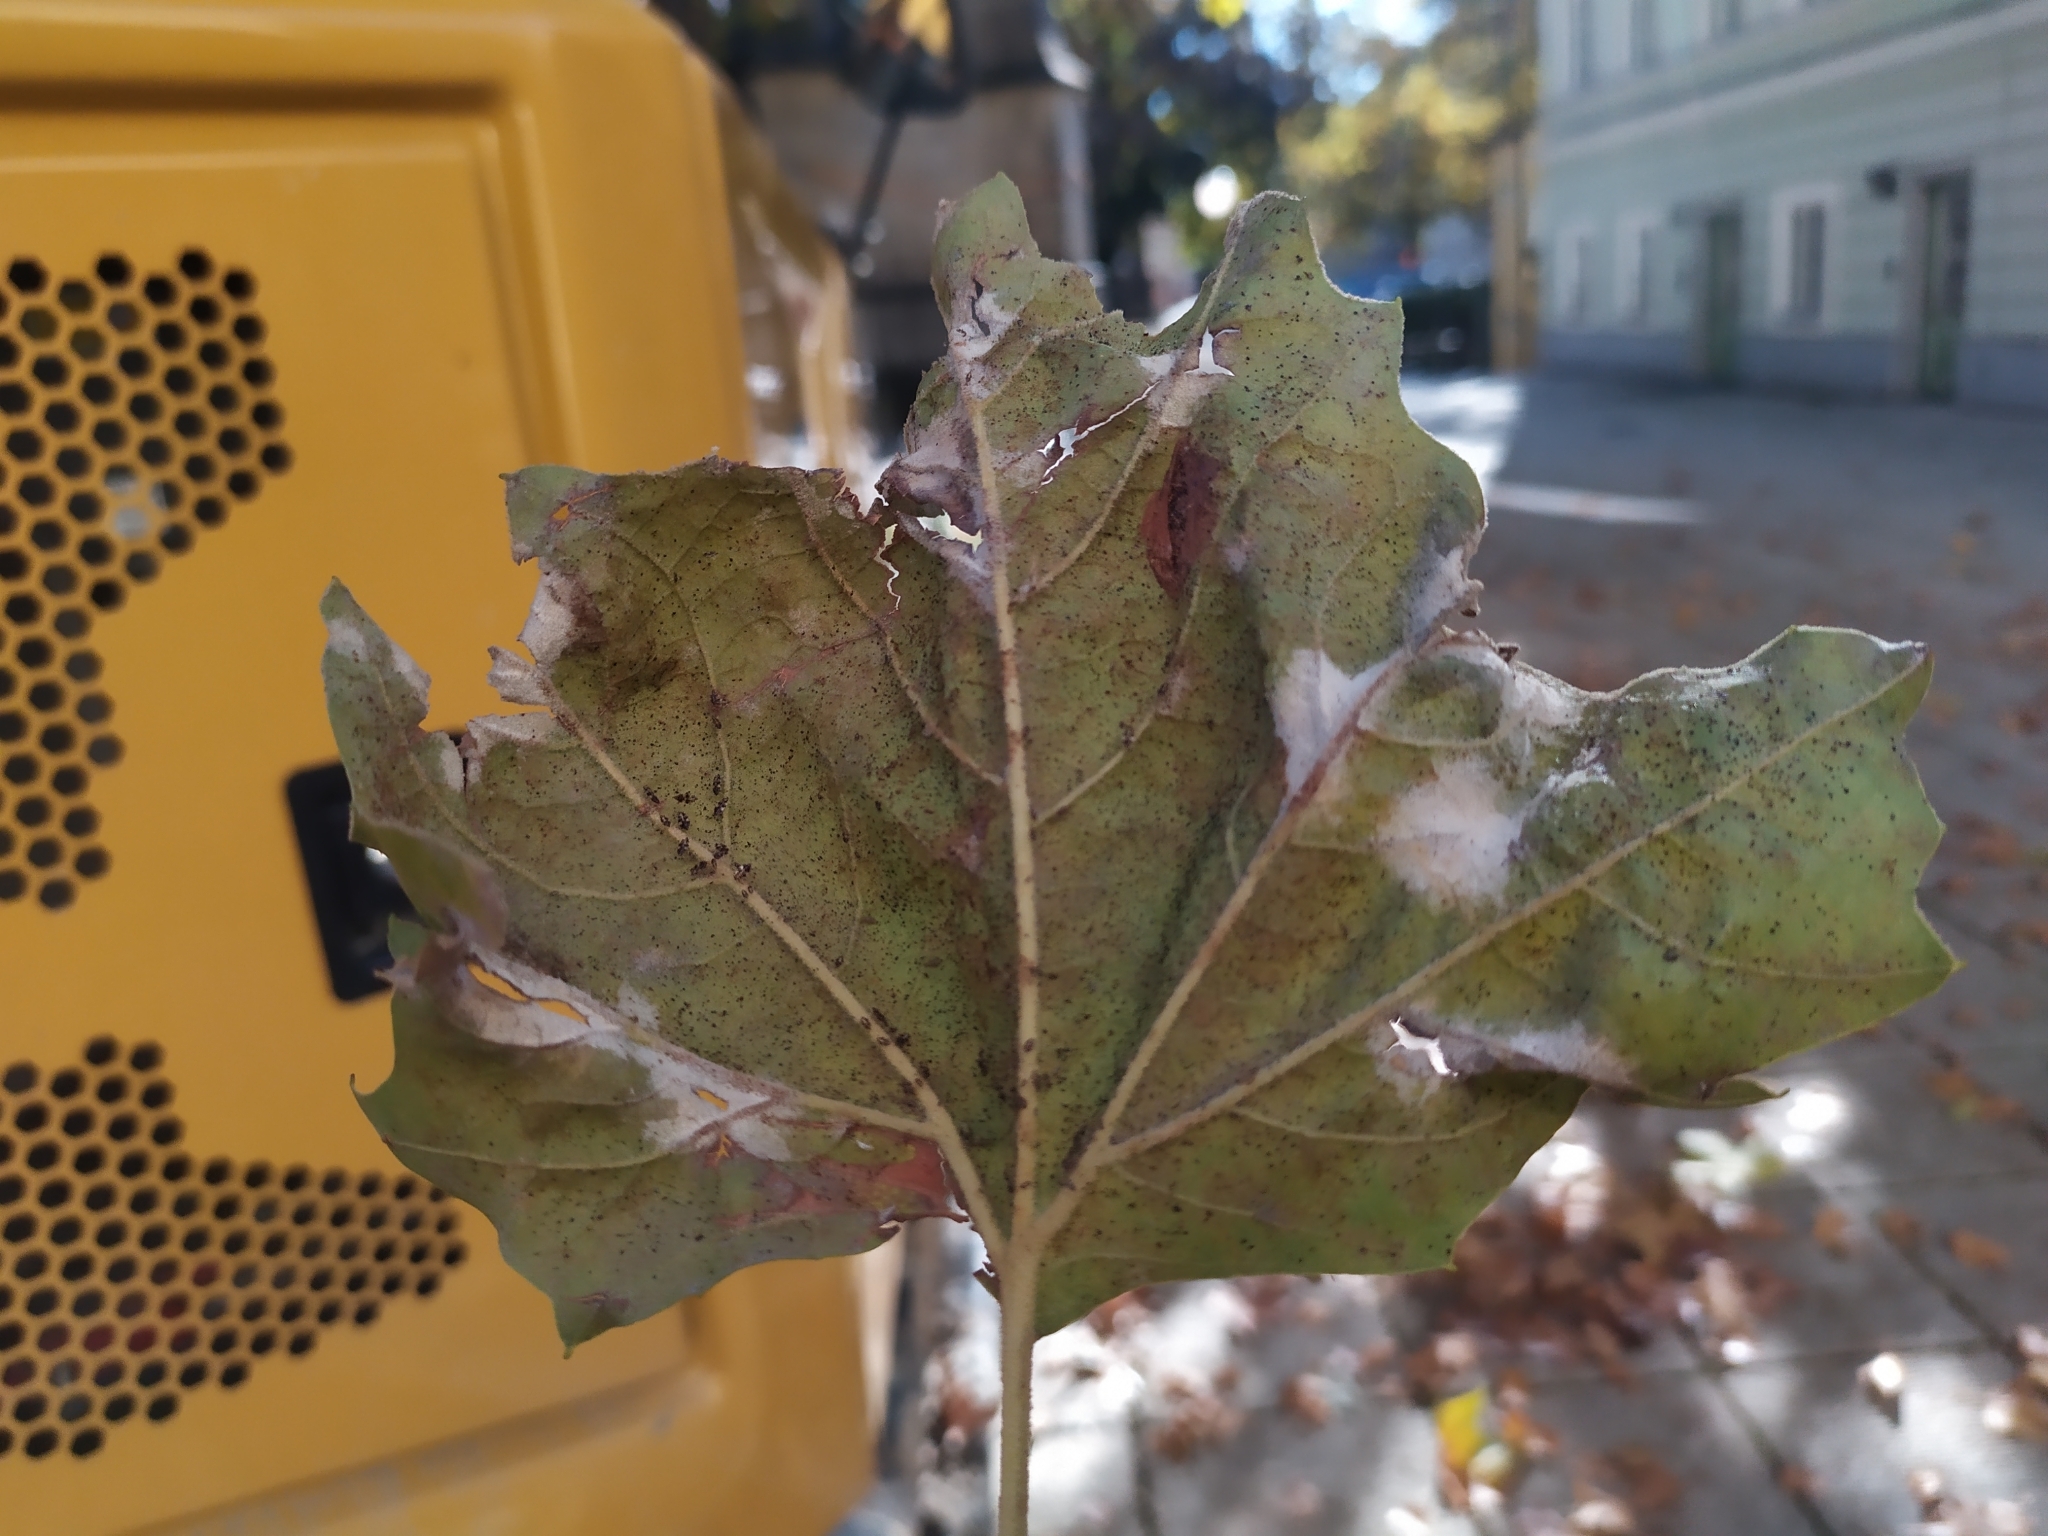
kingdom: Animalia
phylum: Arthropoda
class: Insecta
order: Hemiptera
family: Tingidae
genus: Corythucha
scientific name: Corythucha ciliata
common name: Sycamore lace bug
